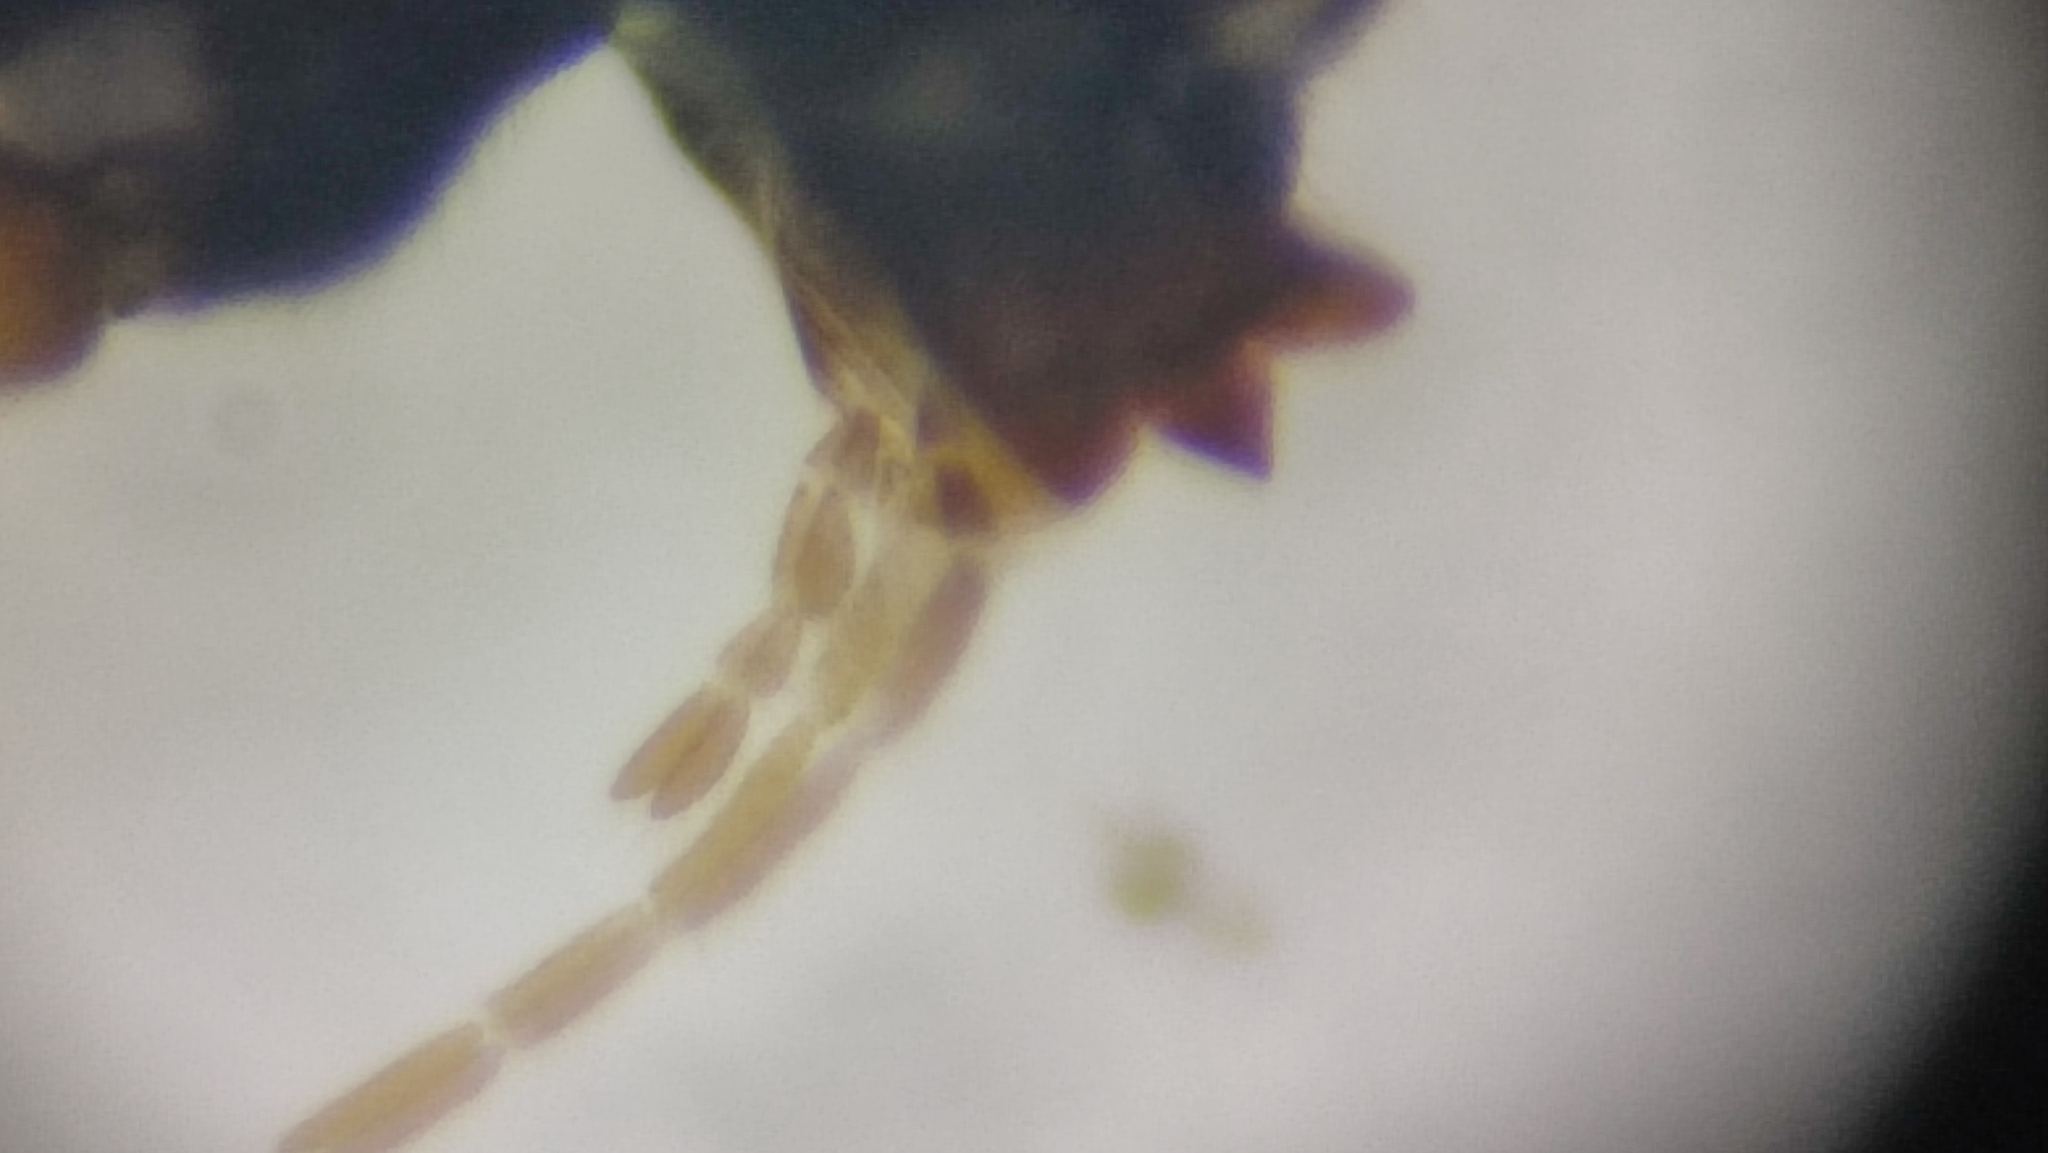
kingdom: Animalia
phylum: Arthropoda
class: Insecta
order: Hymenoptera
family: Braconidae
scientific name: Braconidae
